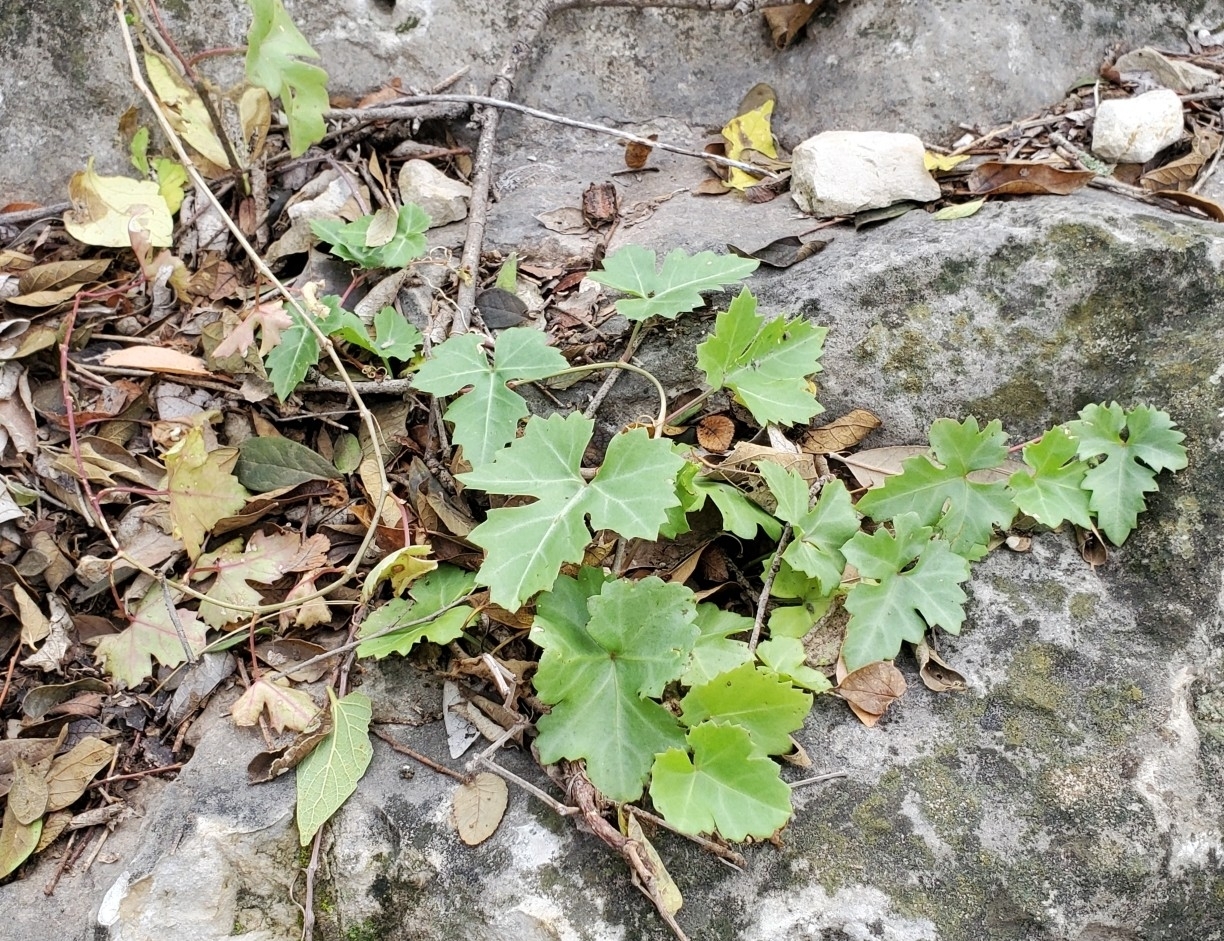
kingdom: Plantae
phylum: Tracheophyta
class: Magnoliopsida
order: Vitales
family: Vitaceae
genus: Cissus
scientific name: Cissus trifoliata
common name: Vine-sorrel
